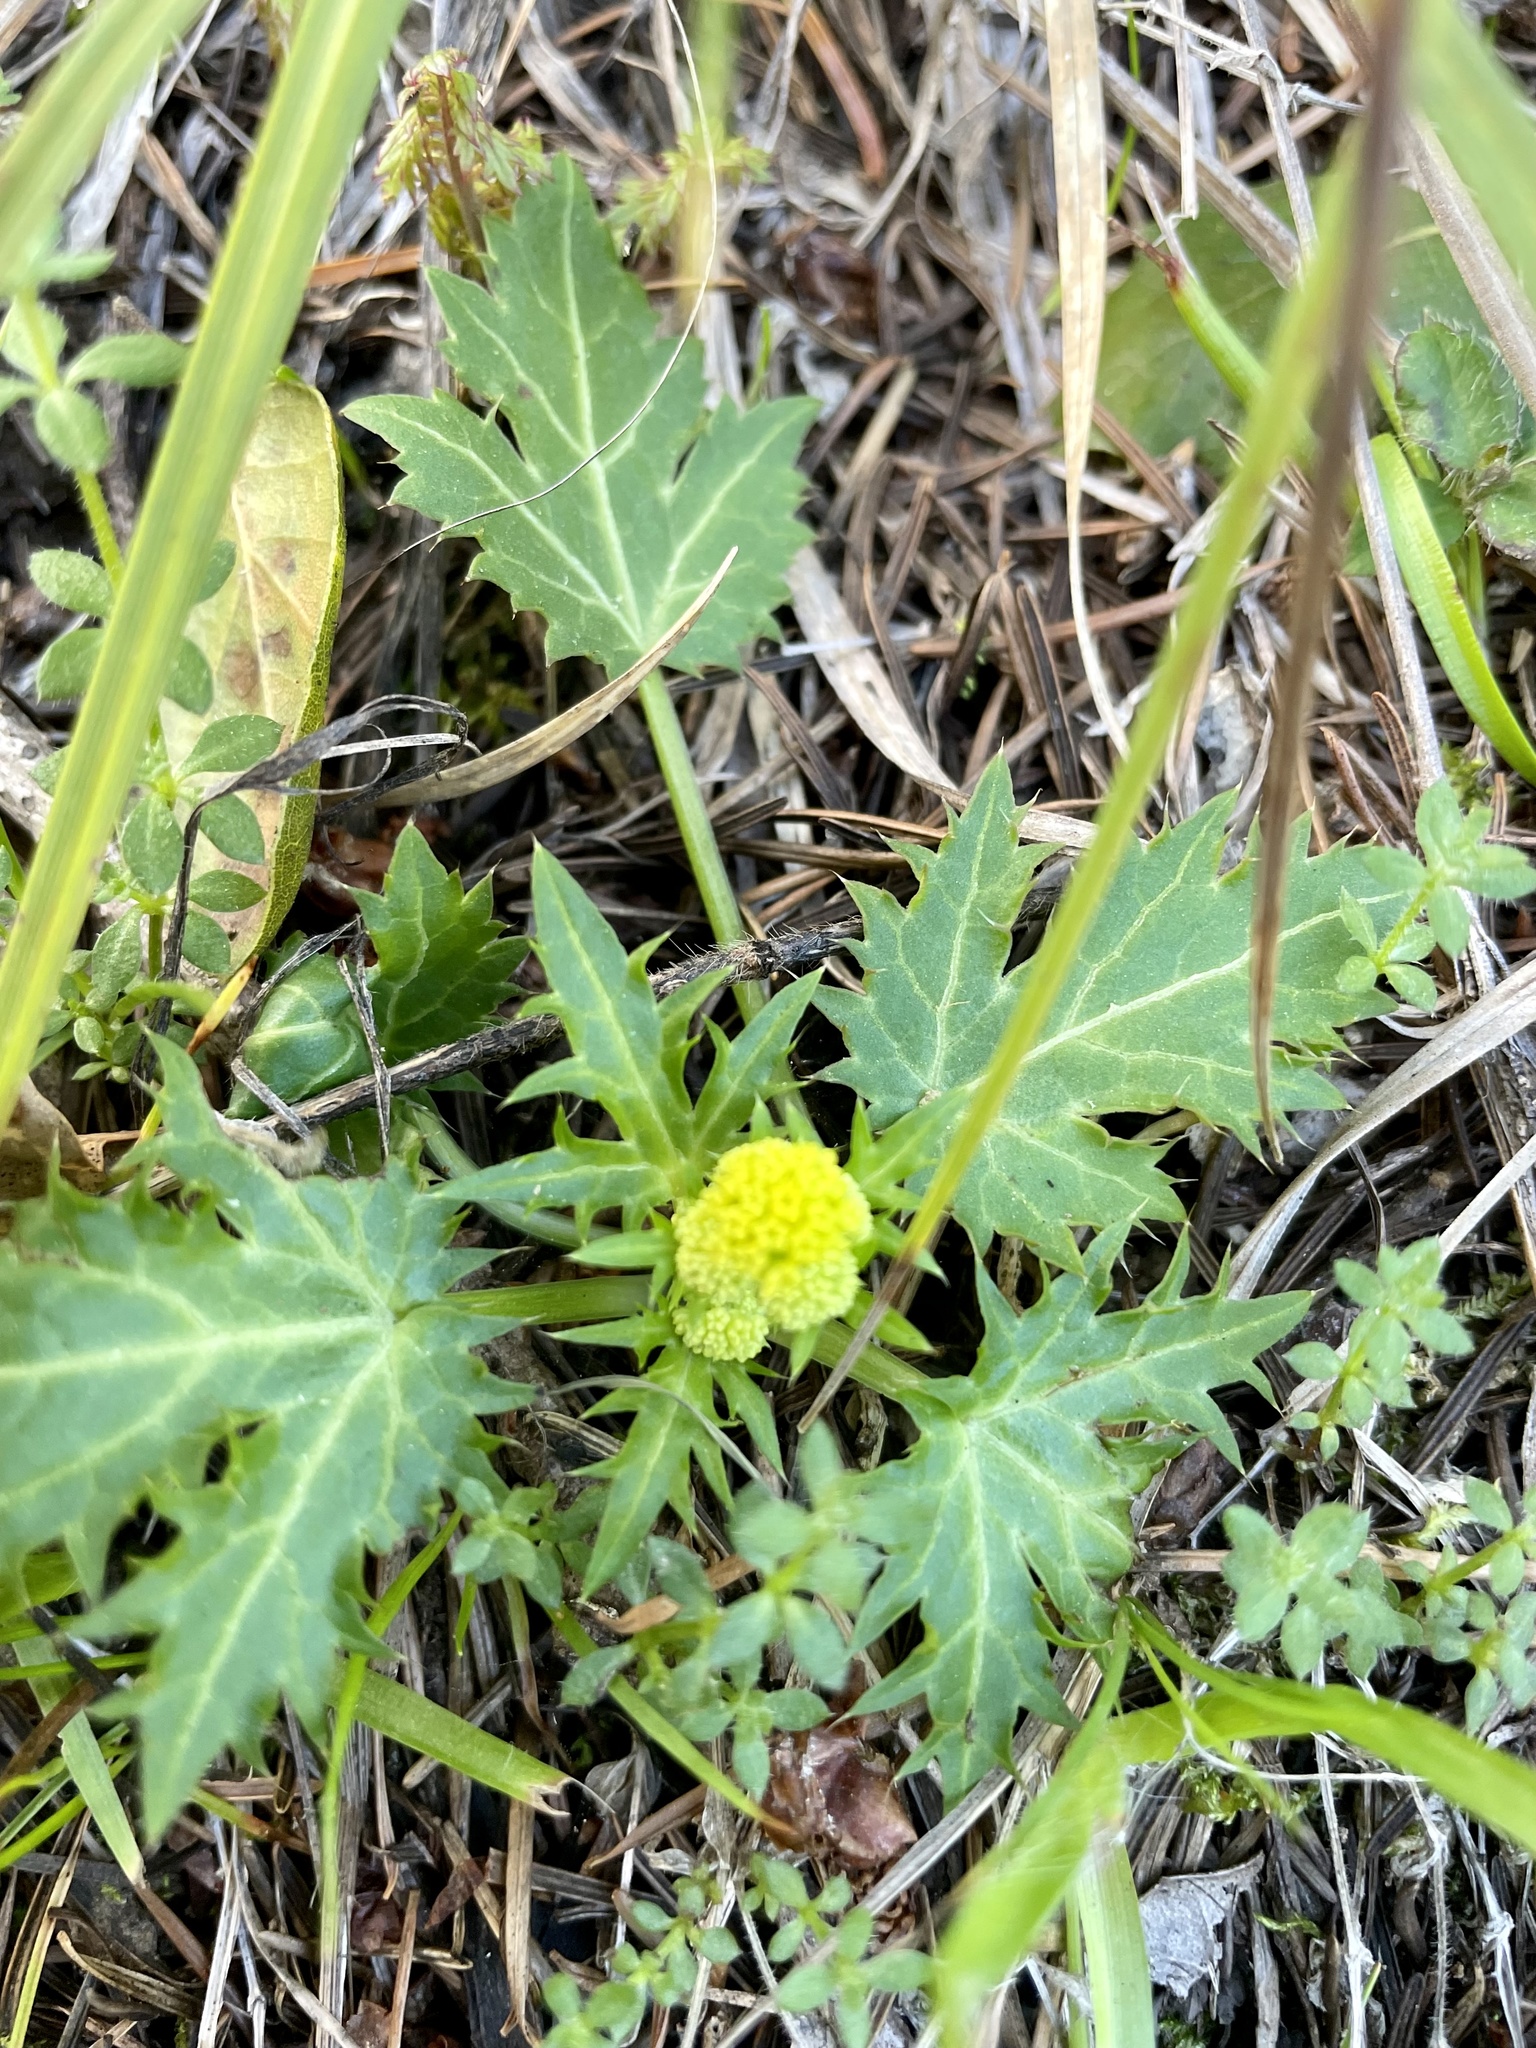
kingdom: Plantae
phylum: Tracheophyta
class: Magnoliopsida
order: Apiales
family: Apiaceae
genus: Sanicula
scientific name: Sanicula laciniata
